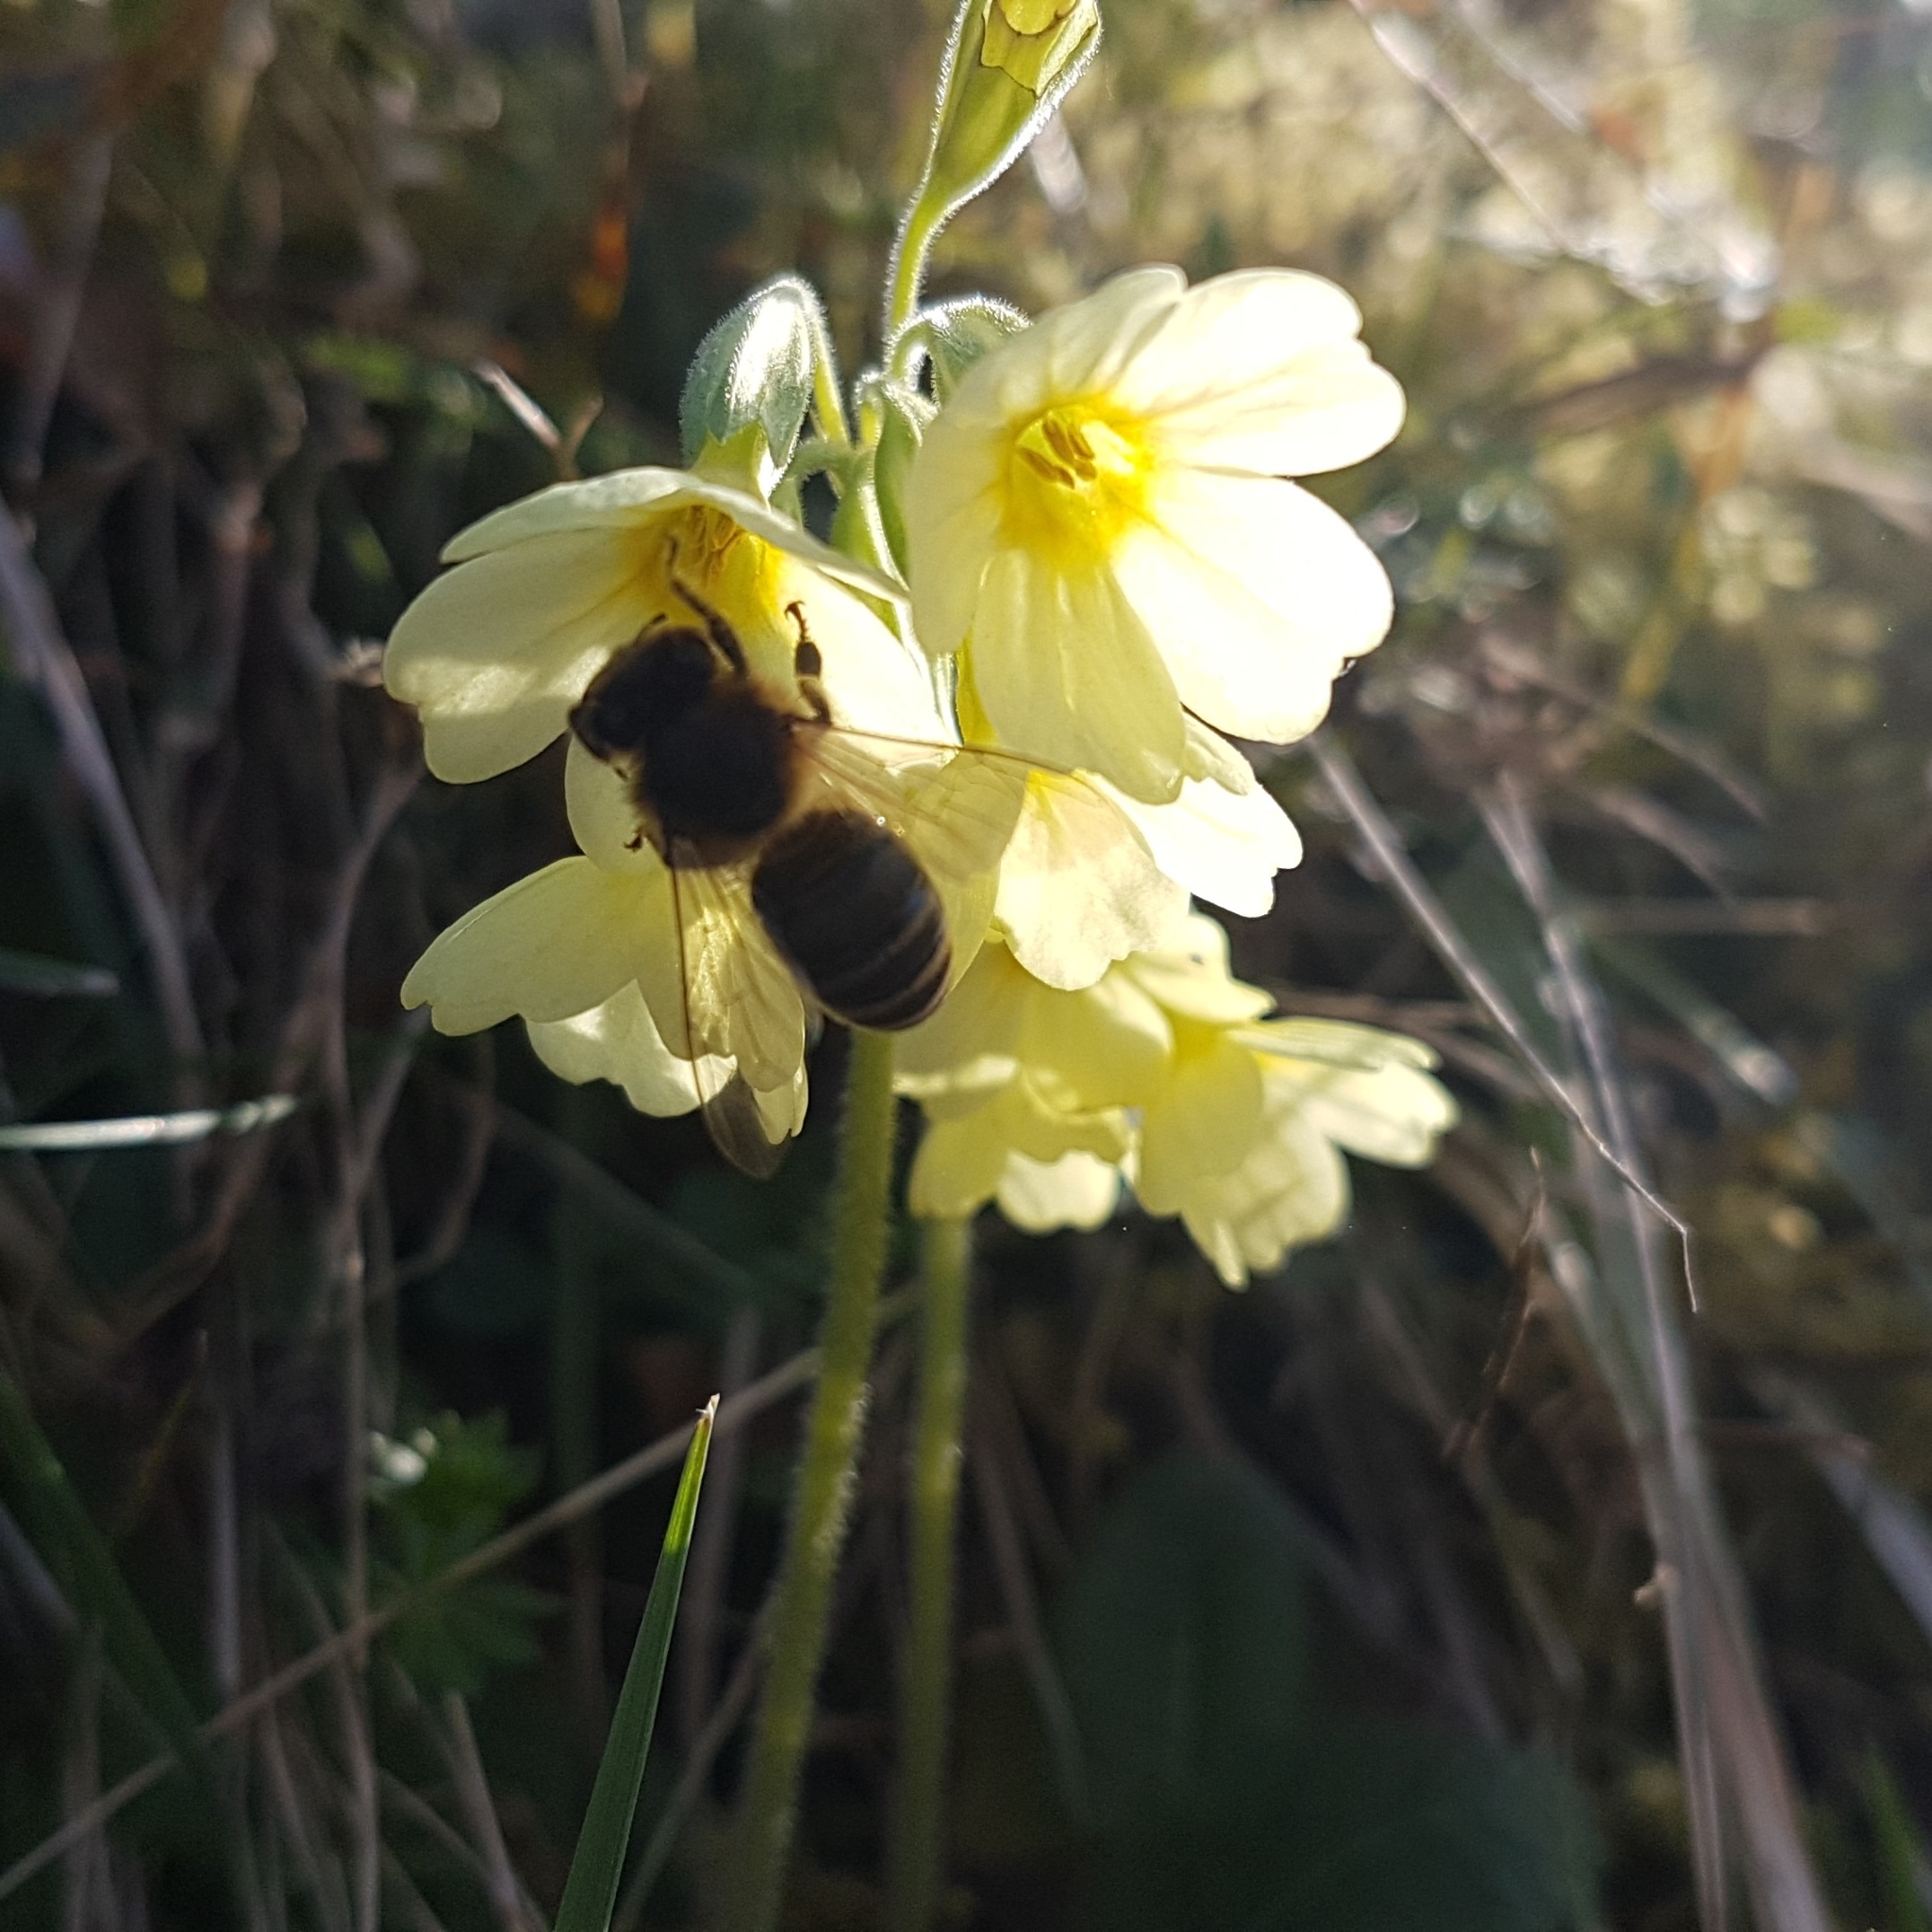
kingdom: Animalia
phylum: Arthropoda
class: Insecta
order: Hymenoptera
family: Apidae
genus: Apis
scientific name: Apis mellifera
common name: Honey bee
